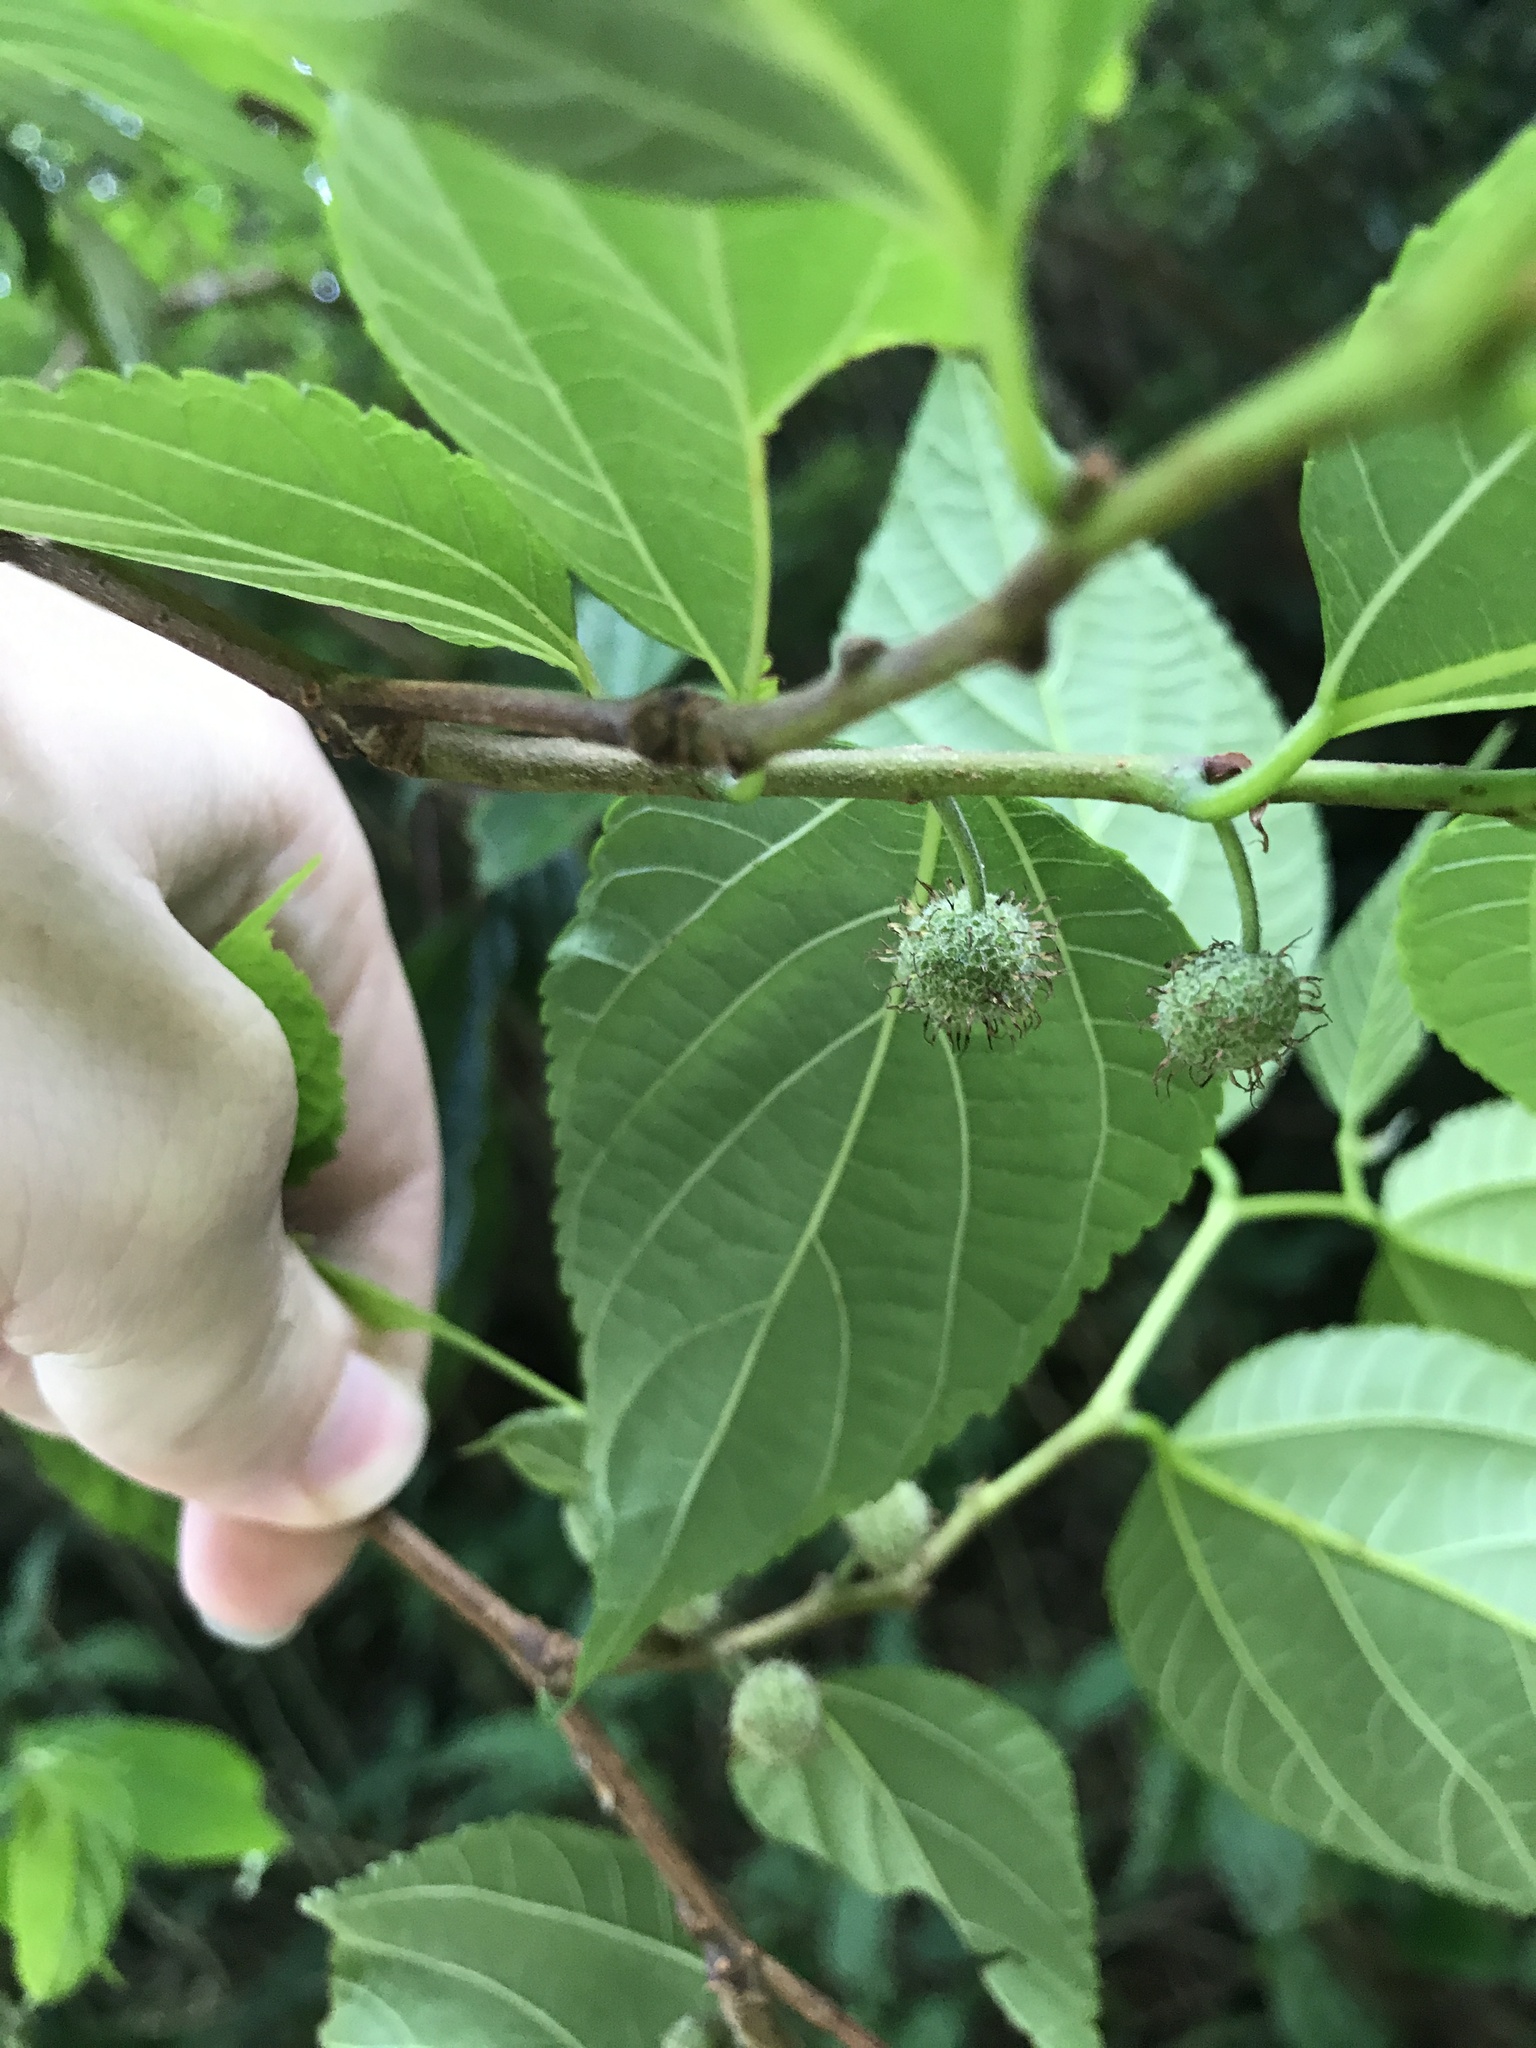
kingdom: Plantae
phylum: Tracheophyta
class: Magnoliopsida
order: Rosales
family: Moraceae
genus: Broussonetia
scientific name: Broussonetia kazinoki
